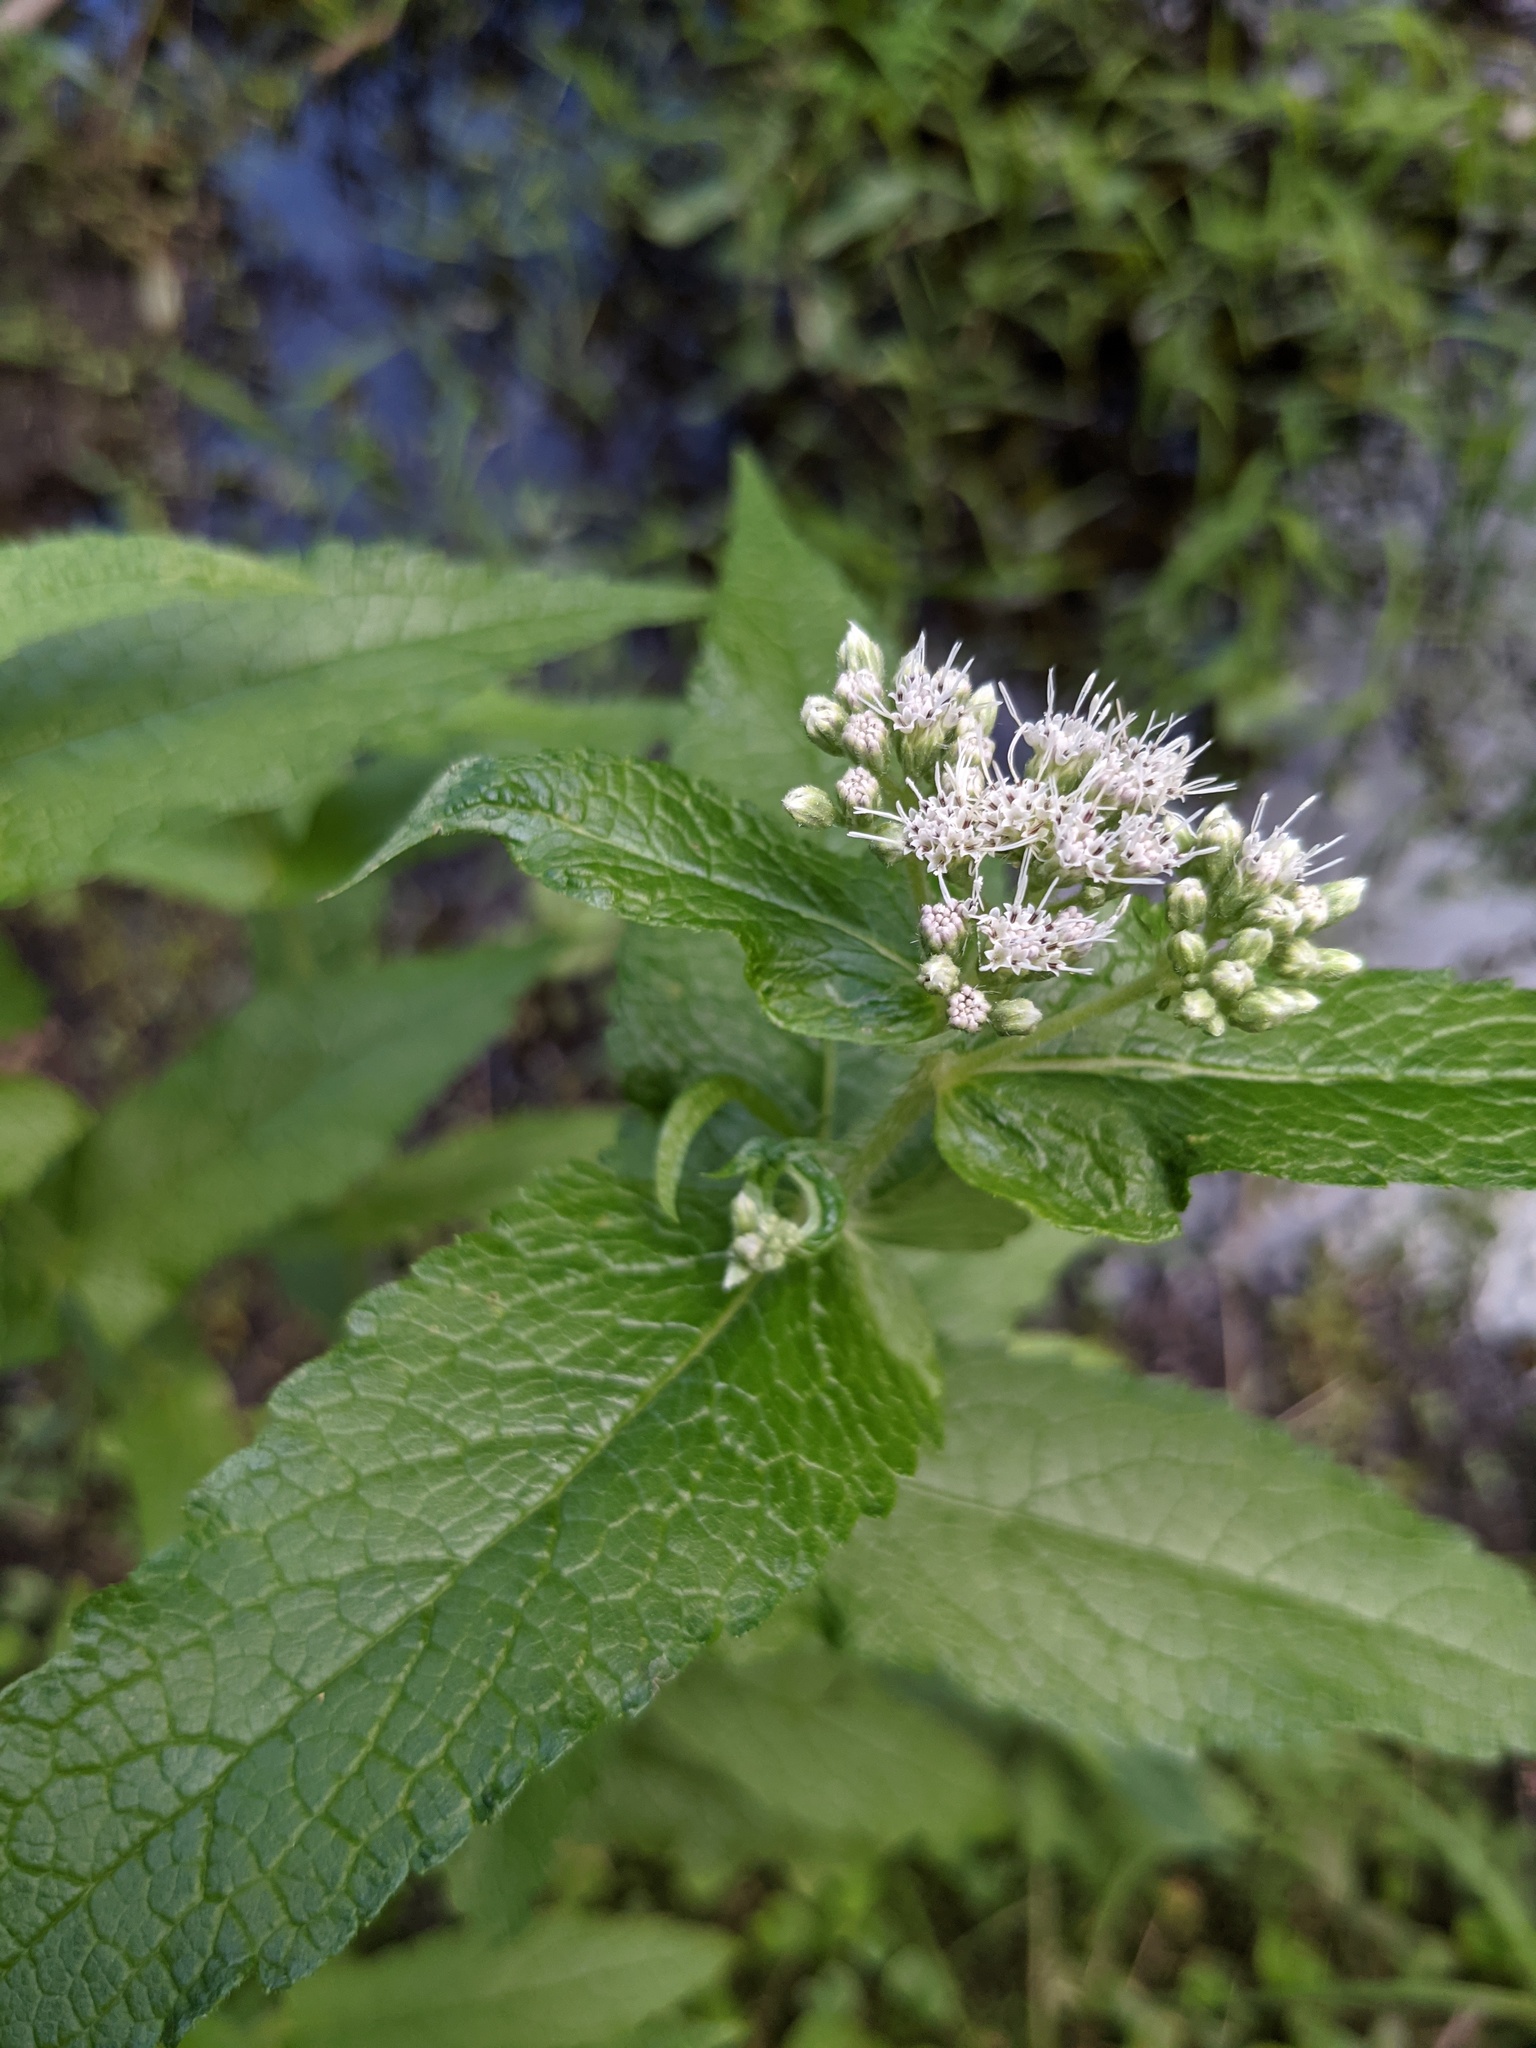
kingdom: Plantae
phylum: Tracheophyta
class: Magnoliopsida
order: Asterales
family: Asteraceae
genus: Eupatorium
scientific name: Eupatorium perfoliatum
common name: Boneset
